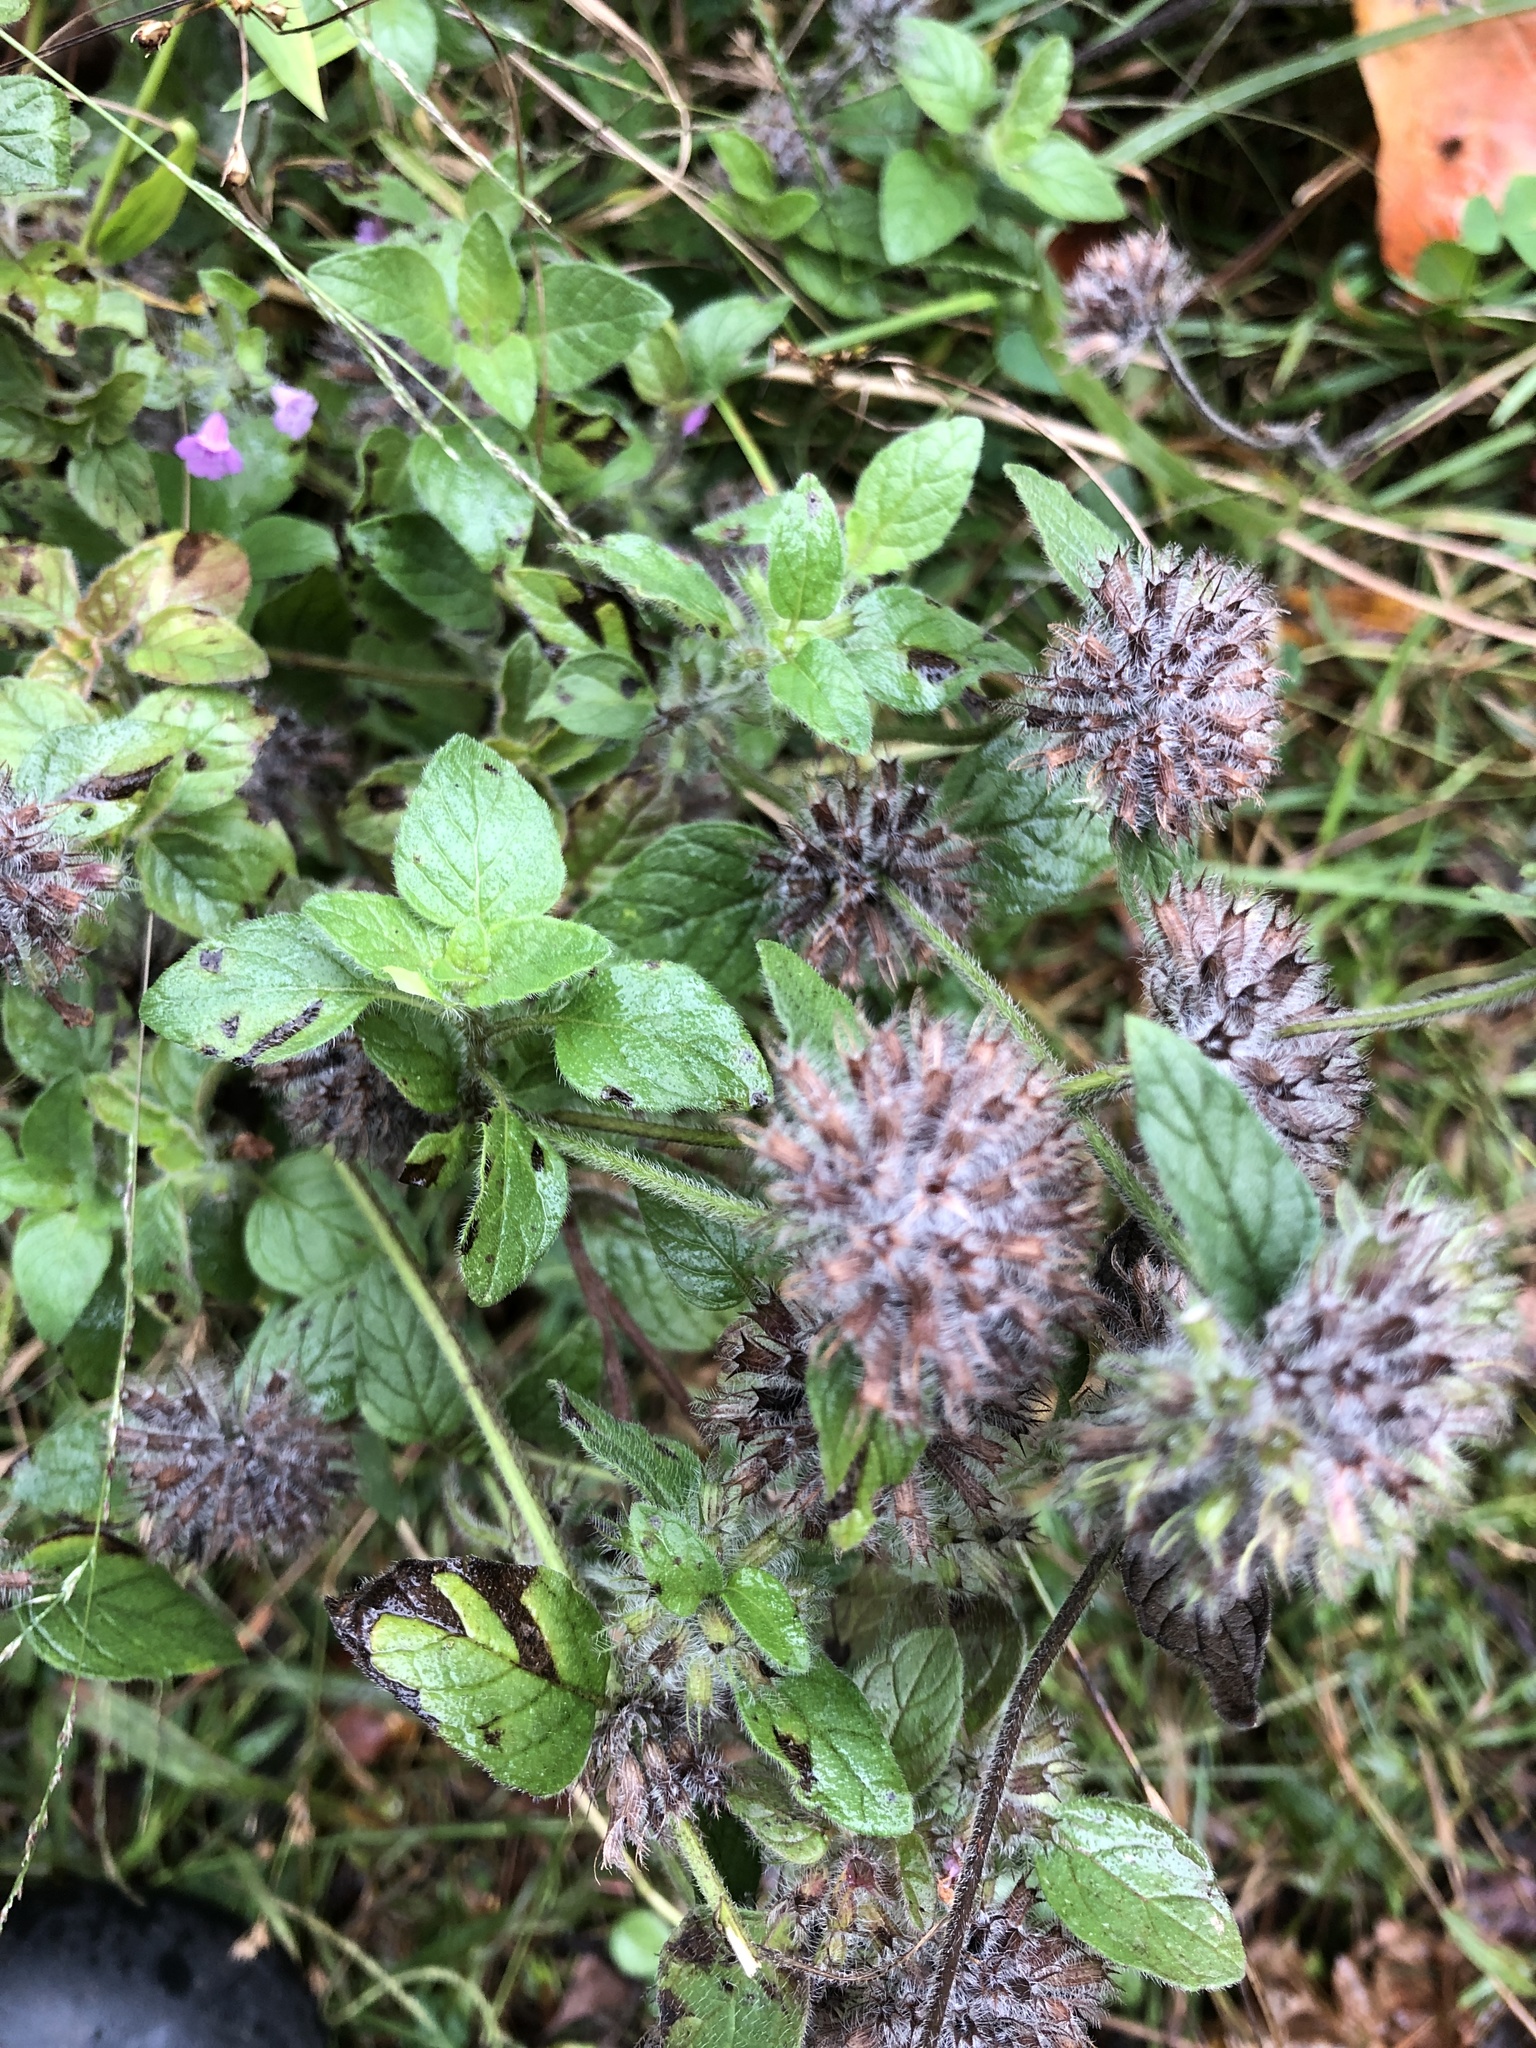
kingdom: Plantae
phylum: Tracheophyta
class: Magnoliopsida
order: Lamiales
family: Lamiaceae
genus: Clinopodium
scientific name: Clinopodium vulgare
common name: Wild basil
